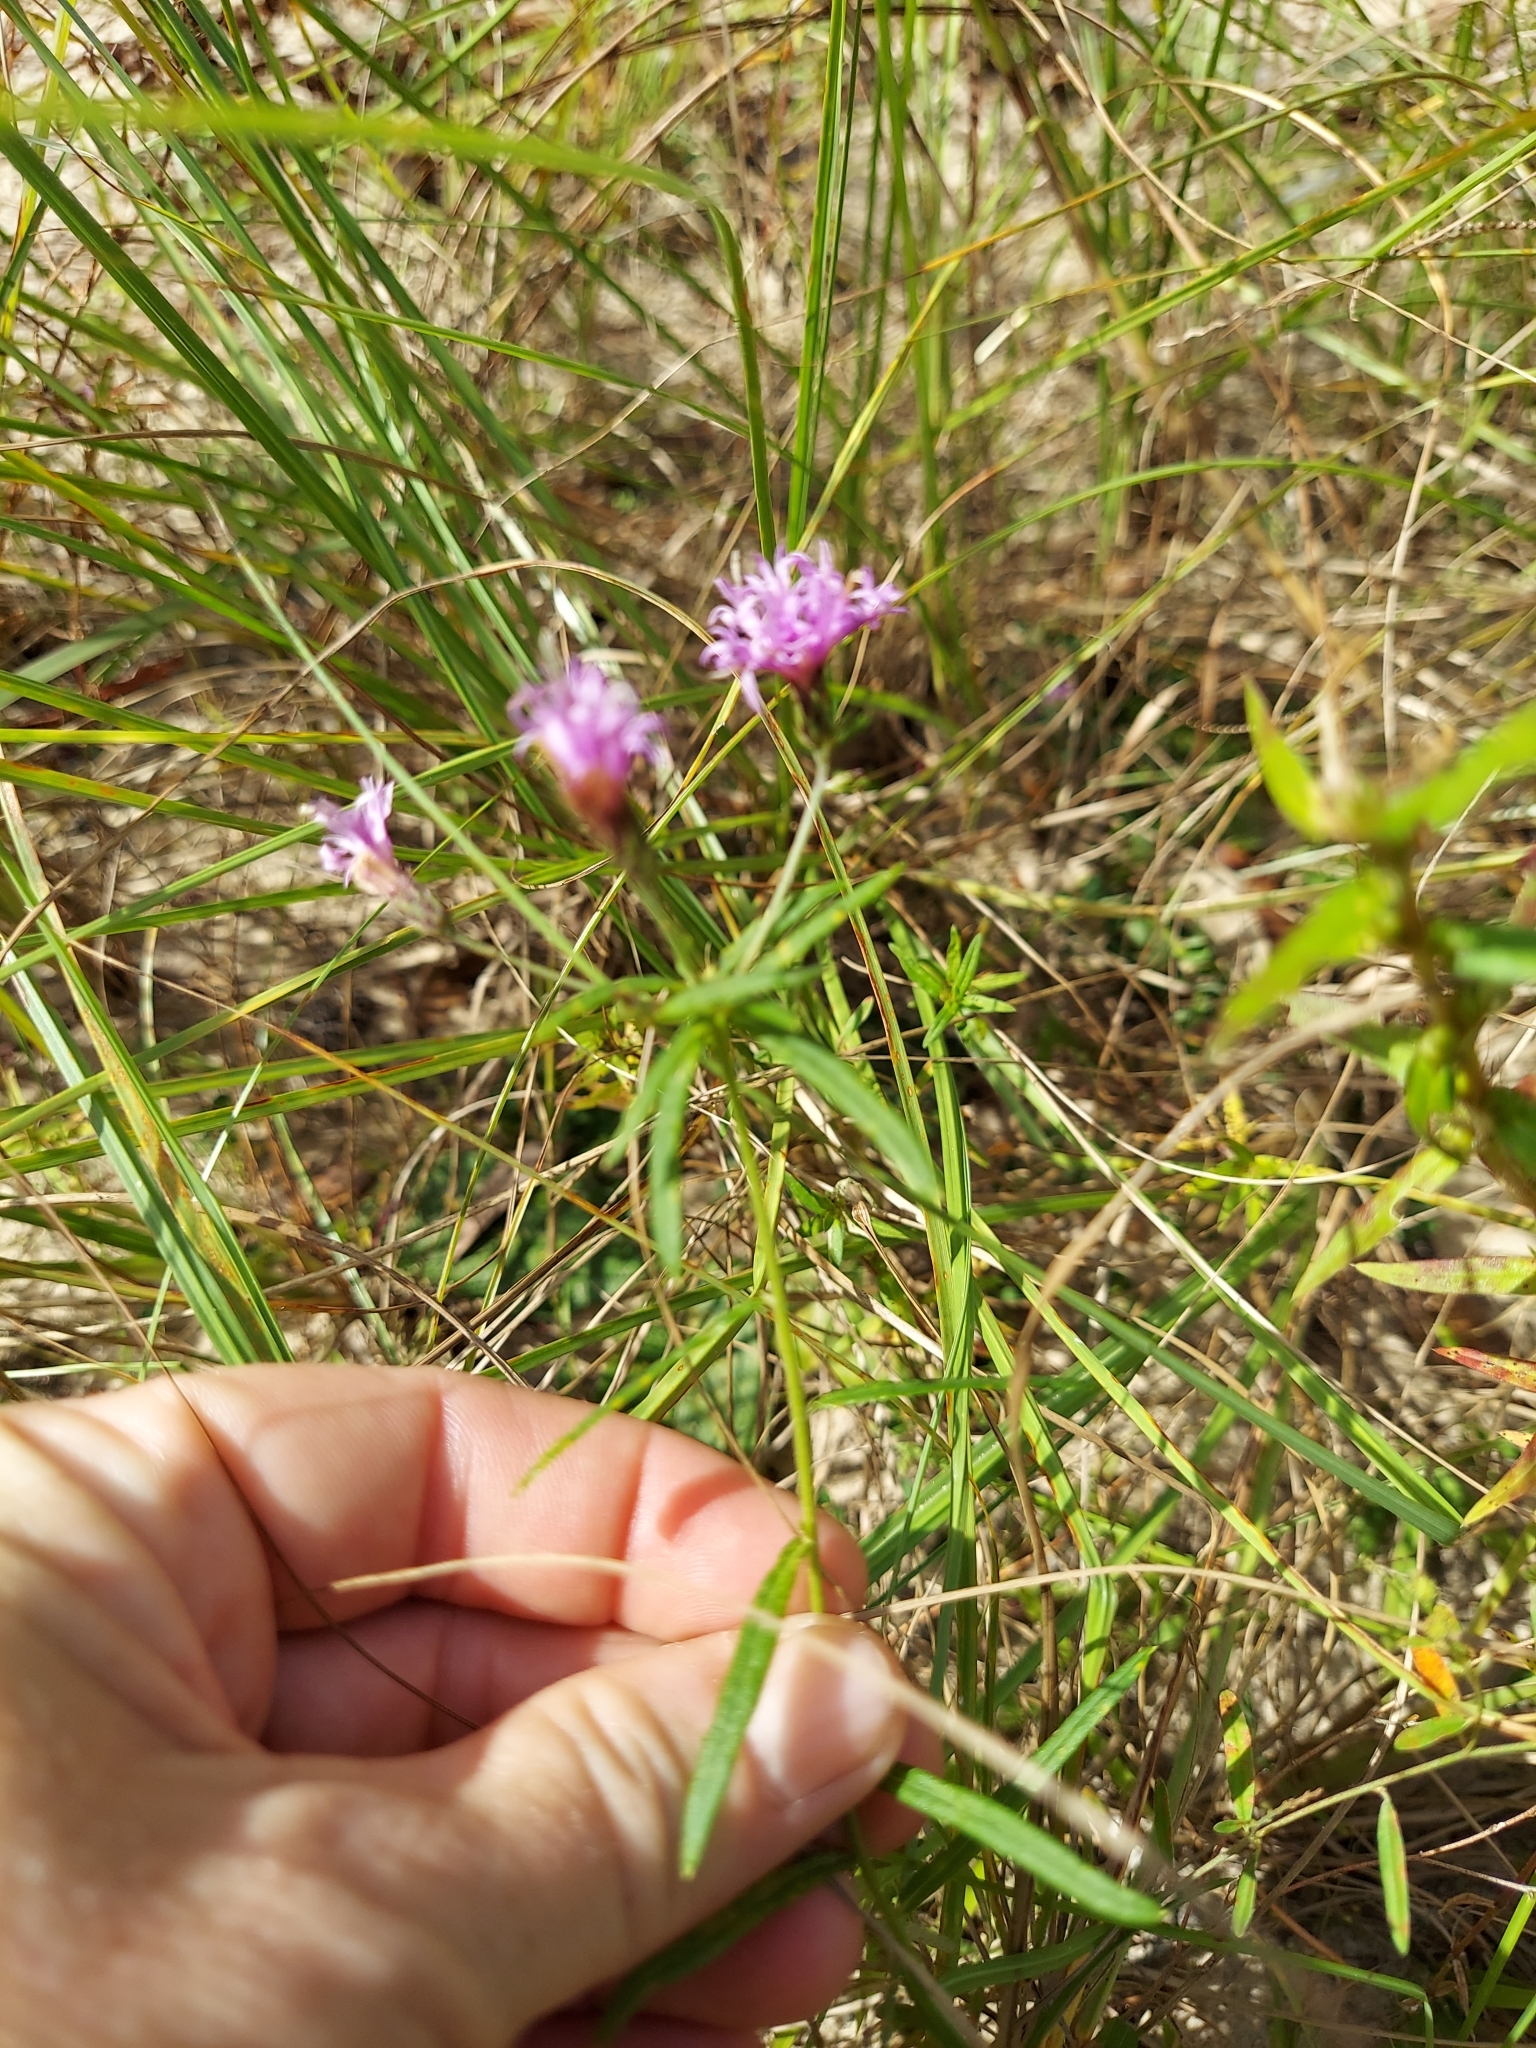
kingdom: Plantae
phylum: Tracheophyta
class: Magnoliopsida
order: Asterales
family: Asteraceae
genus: Vernonia
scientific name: Vernonia angustifolia
